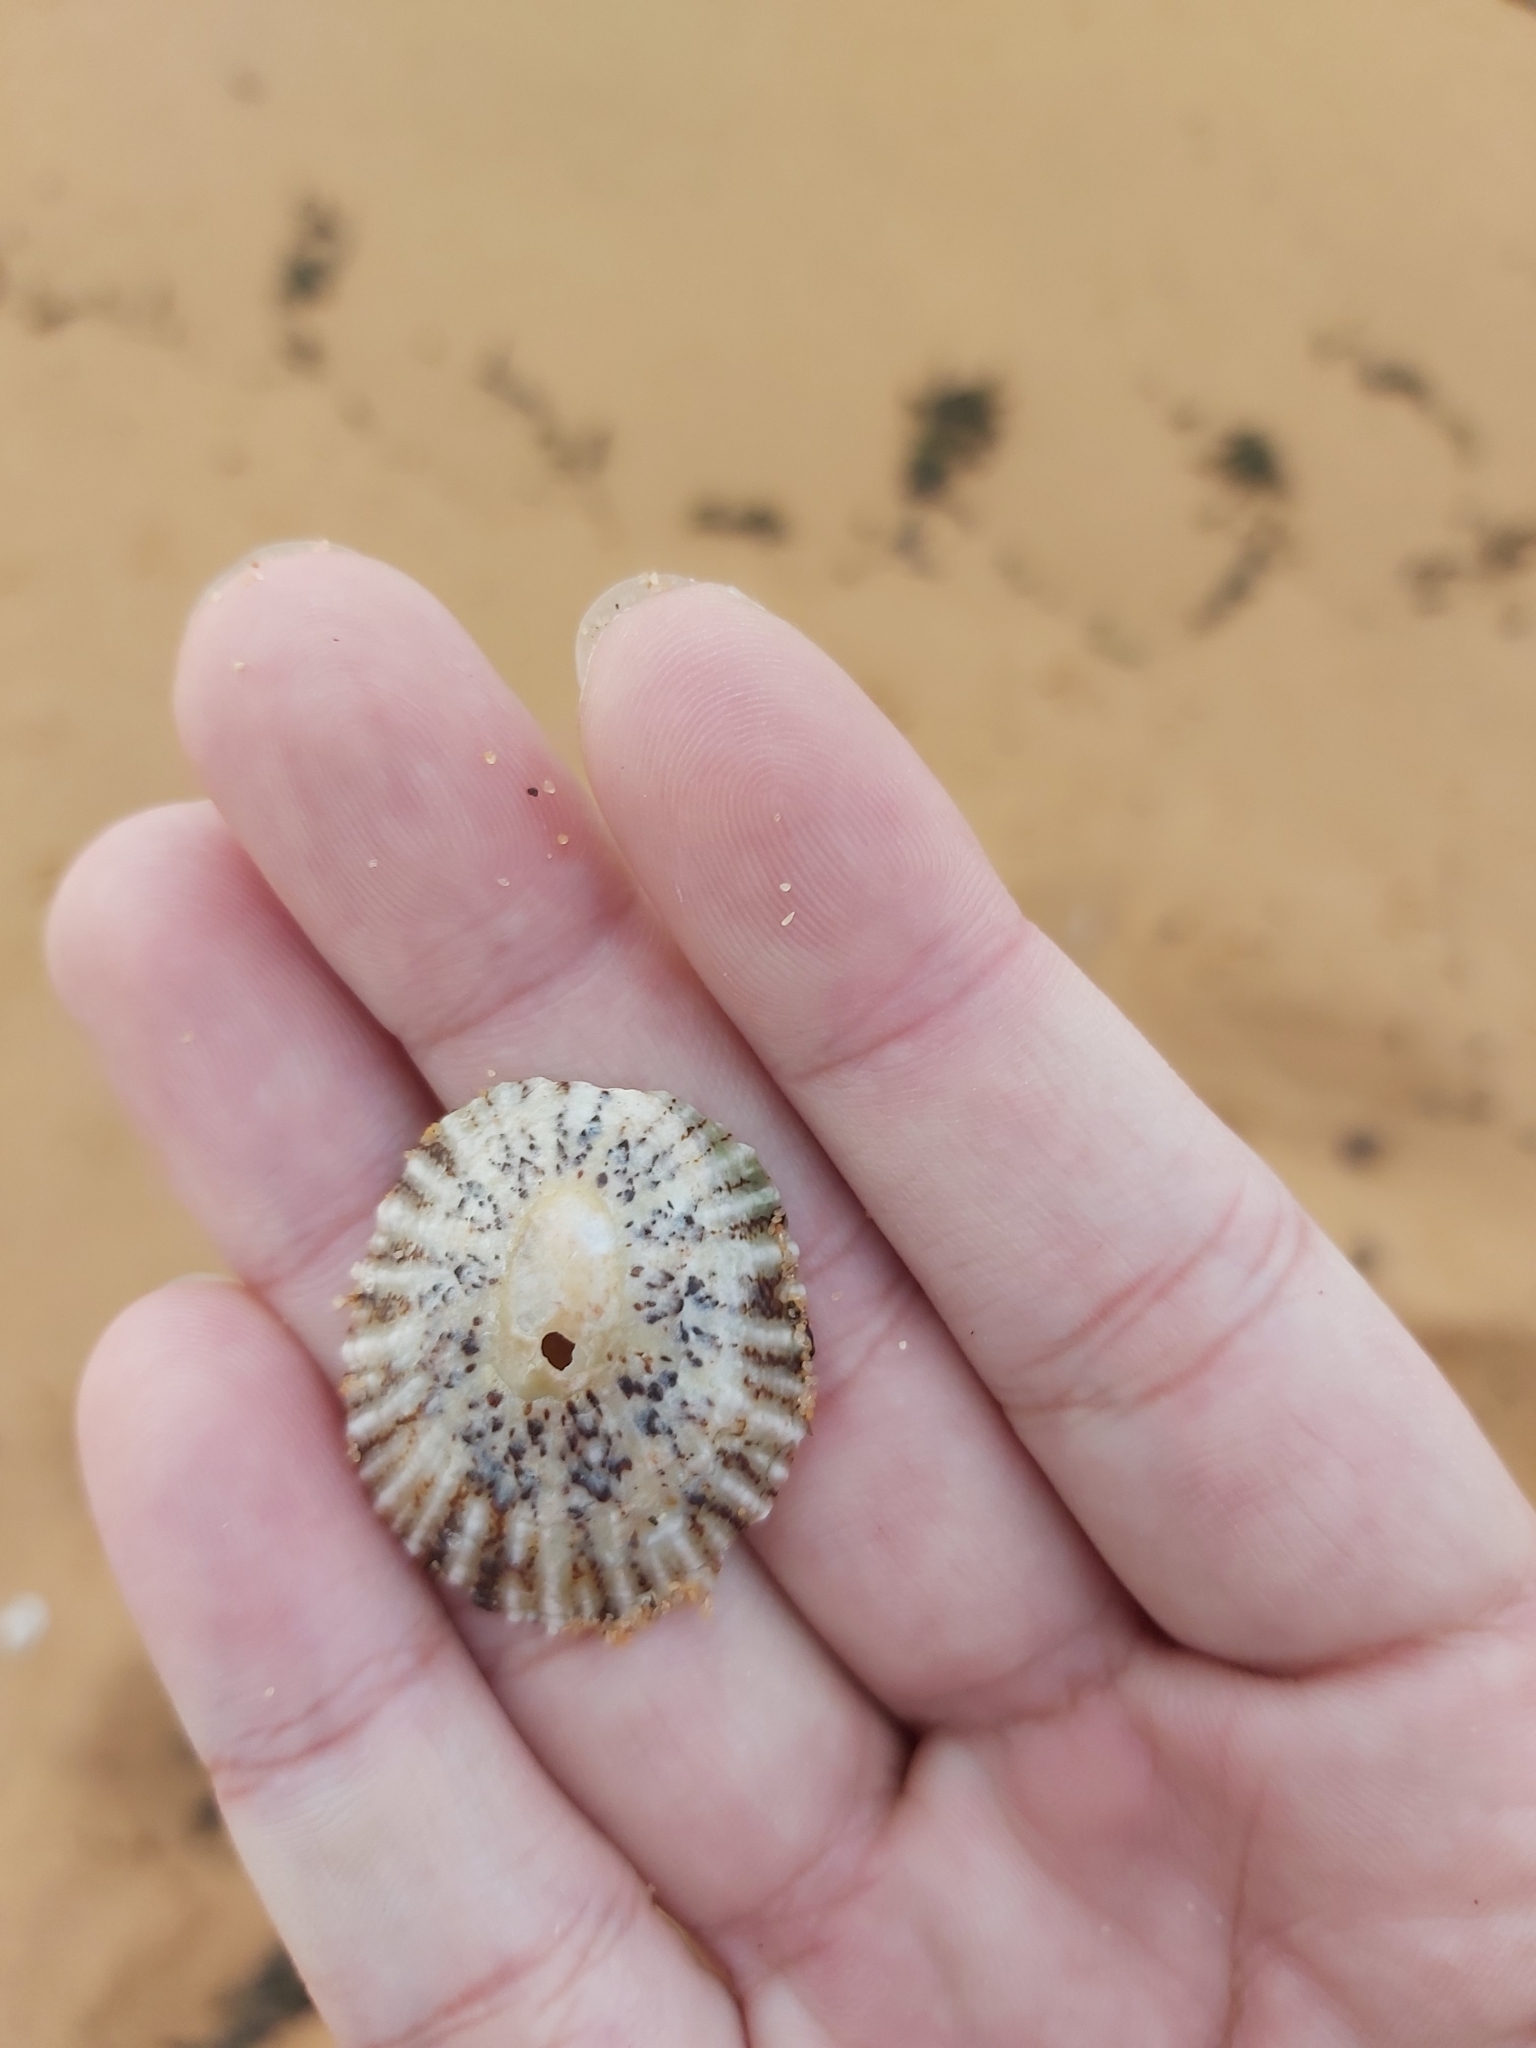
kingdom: Animalia
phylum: Mollusca
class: Gastropoda
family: Nacellidae
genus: Cellana
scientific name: Cellana tramoserica
